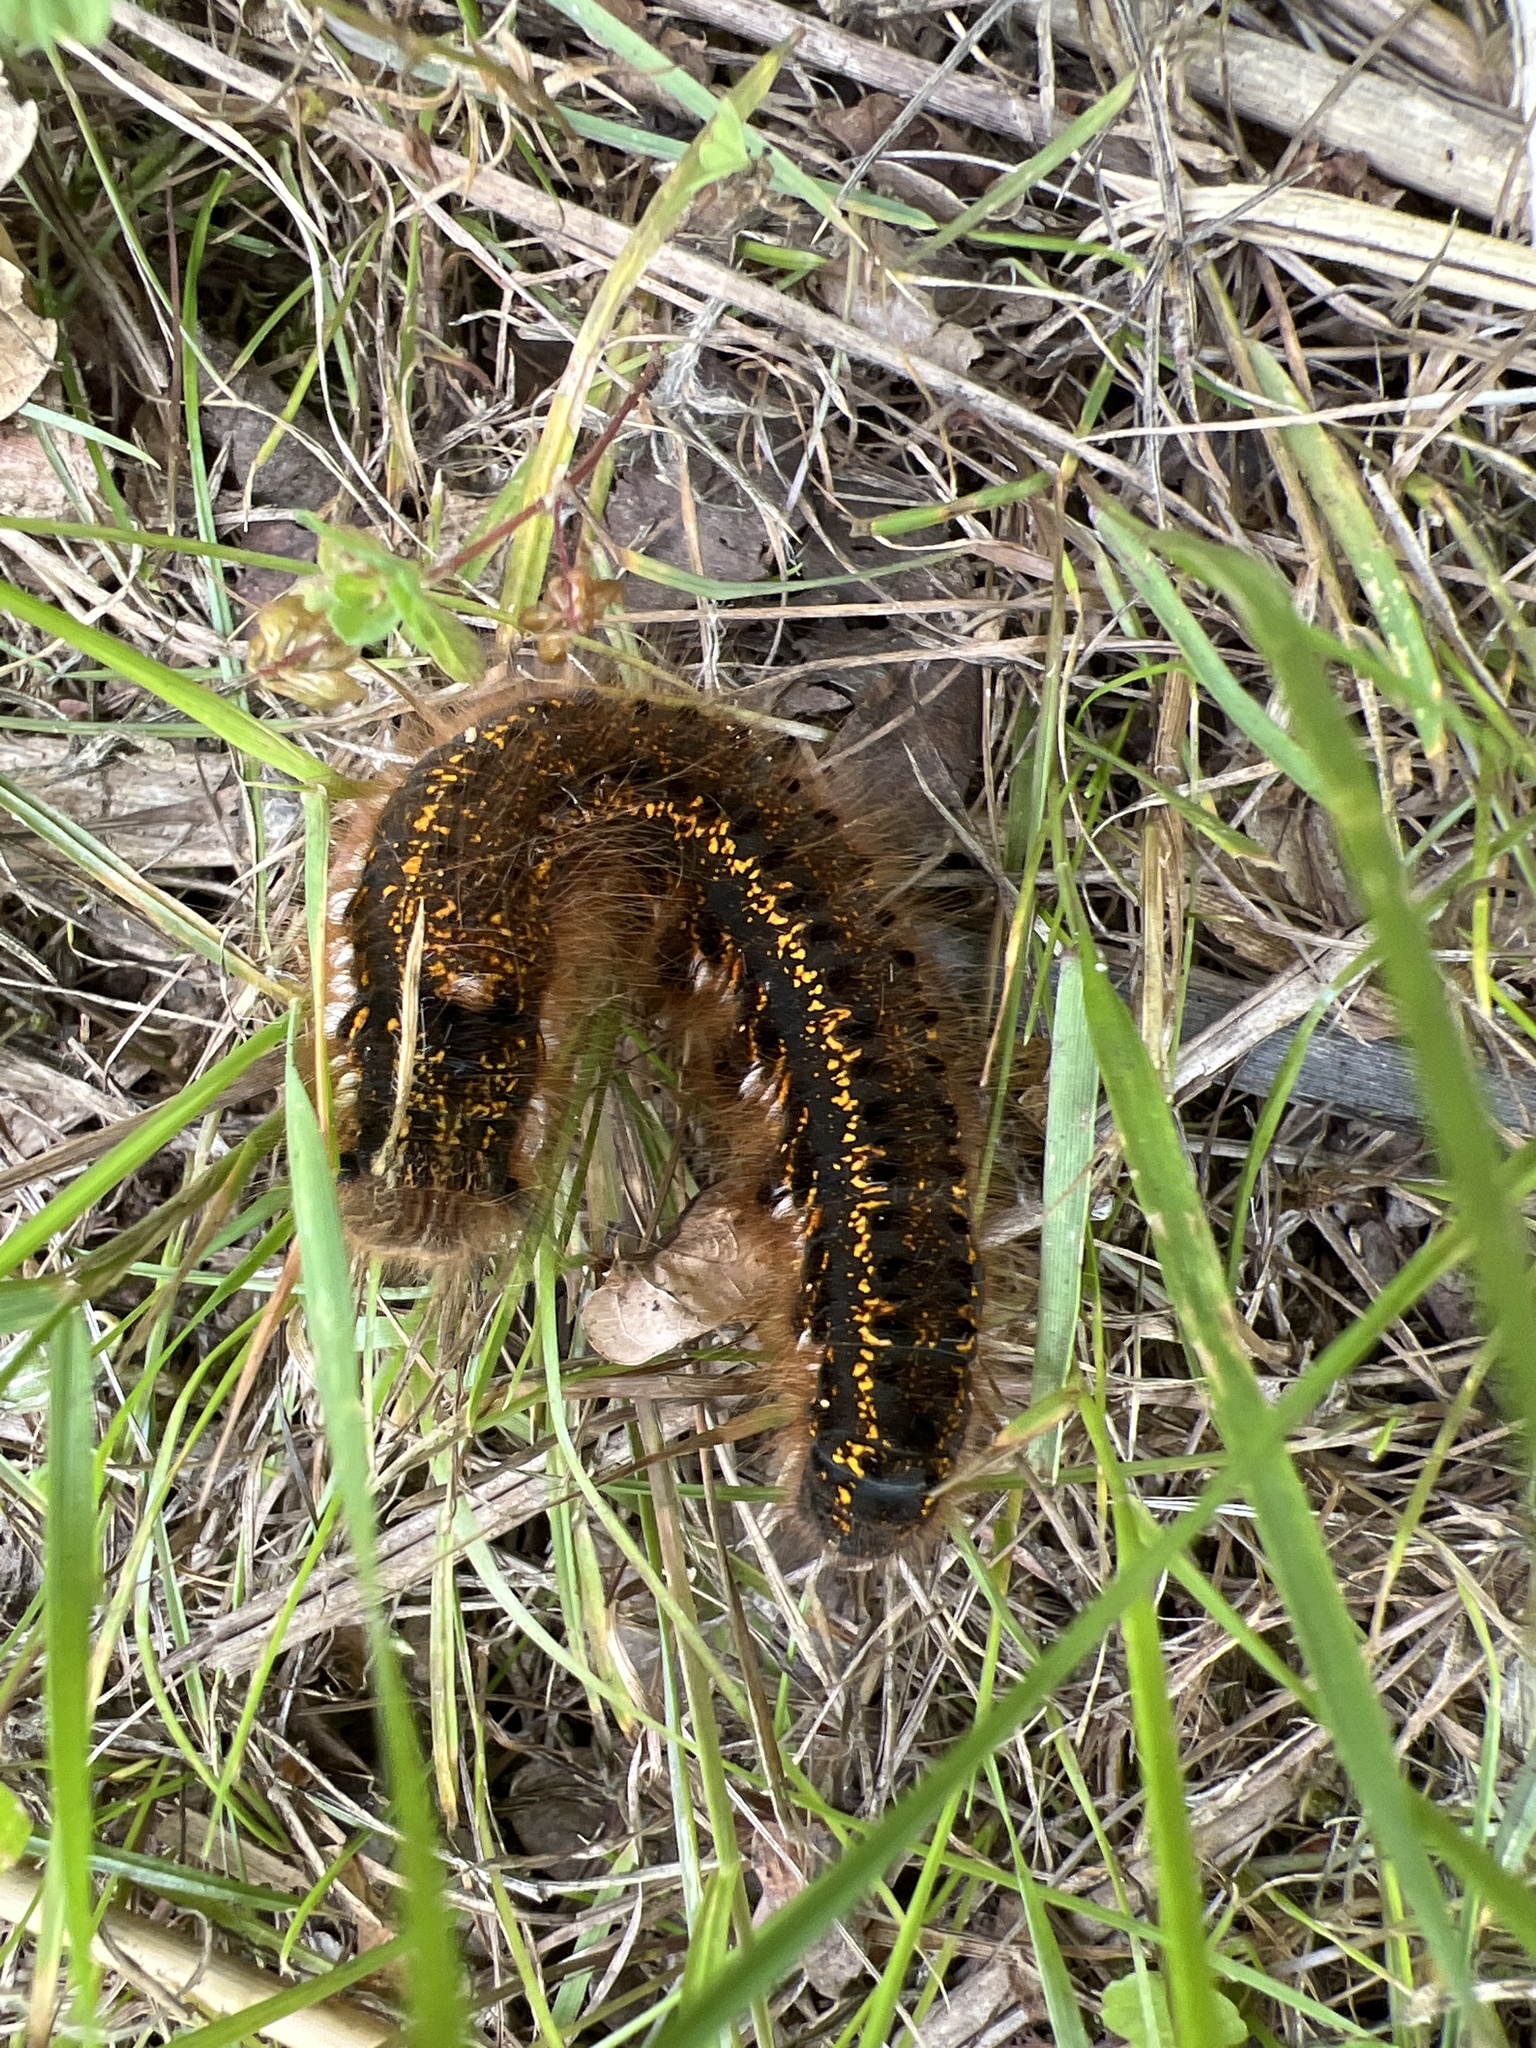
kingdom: Animalia
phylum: Arthropoda
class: Insecta
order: Lepidoptera
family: Lasiocampidae
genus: Euthrix
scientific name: Euthrix potatoria
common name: Drinker
